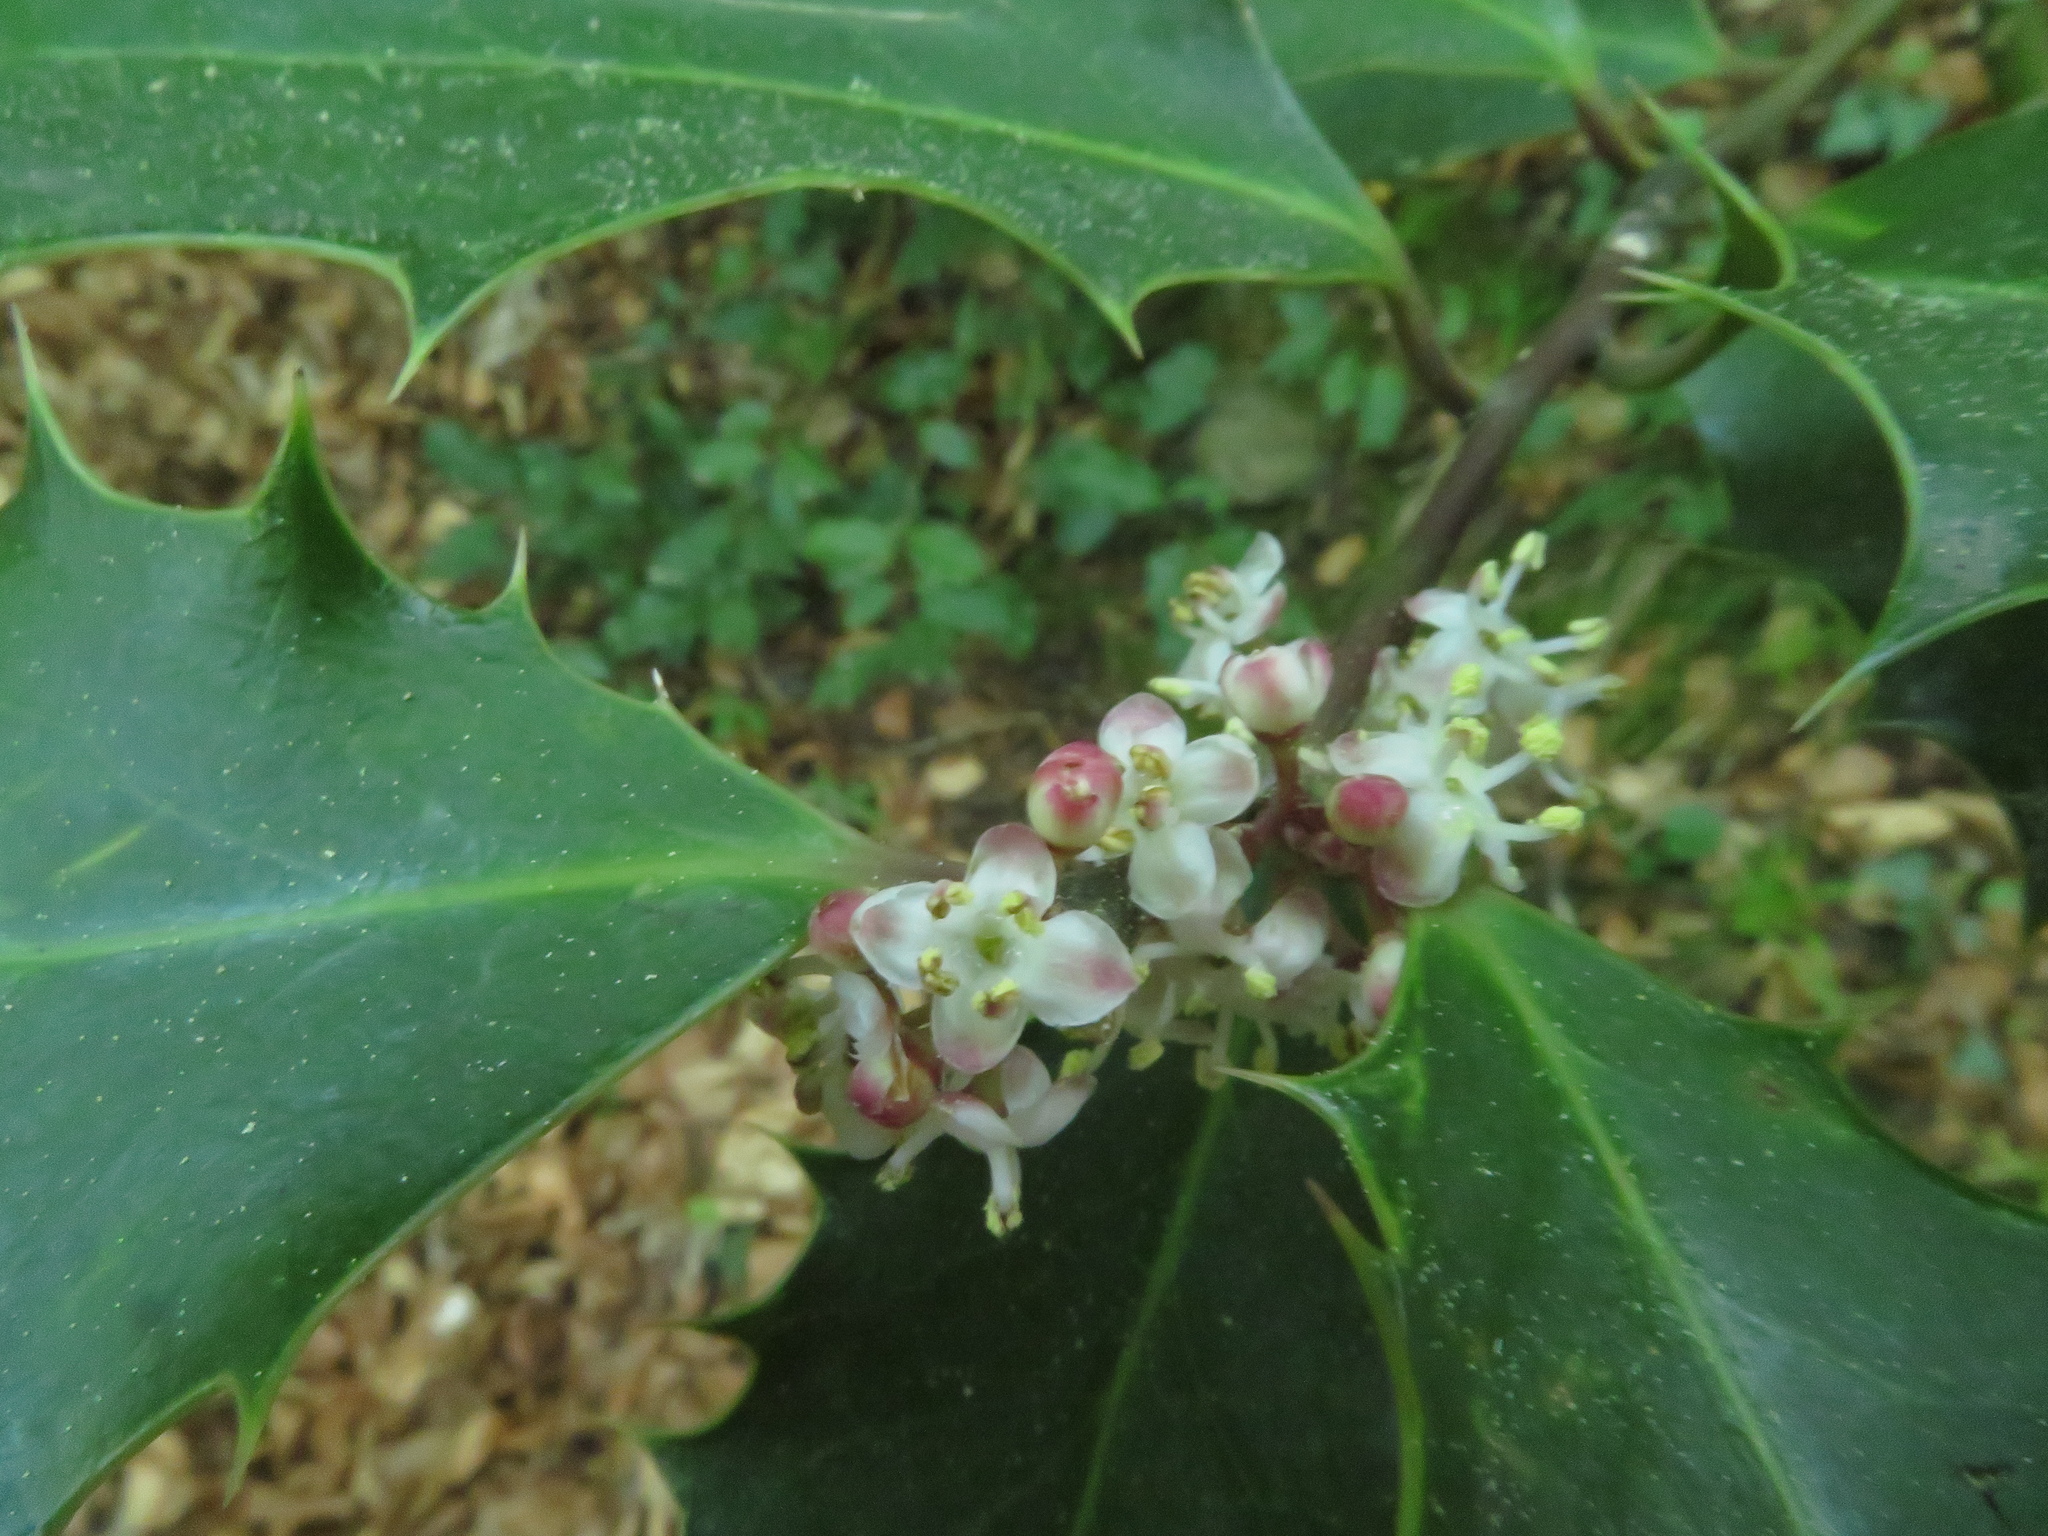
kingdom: Plantae
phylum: Tracheophyta
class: Magnoliopsida
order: Aquifoliales
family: Aquifoliaceae
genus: Ilex
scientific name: Ilex aquifolium
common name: English holly
